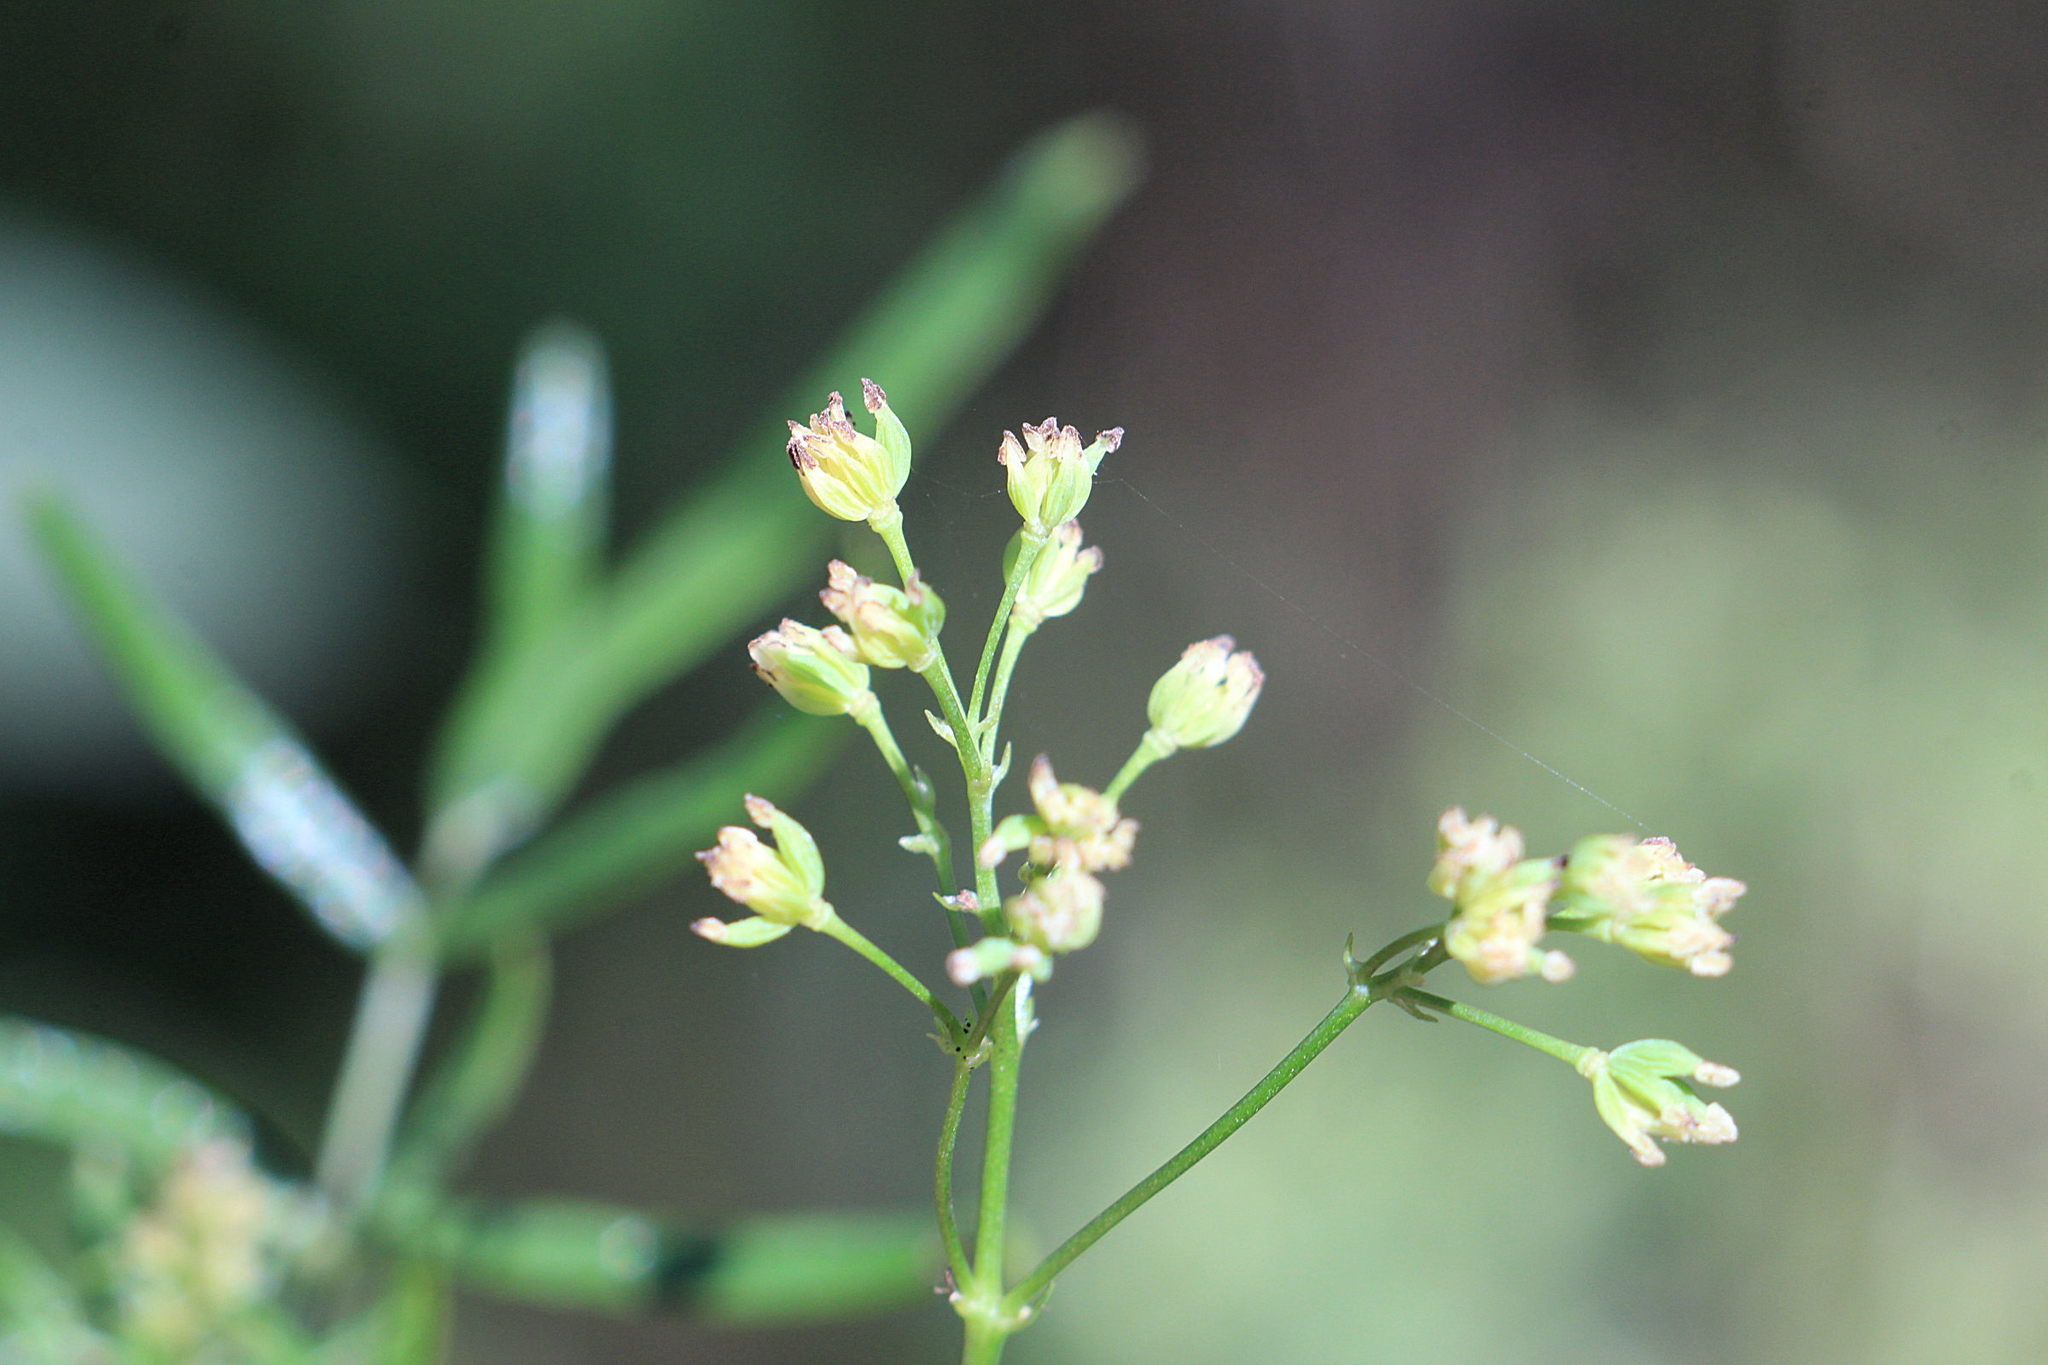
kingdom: Plantae
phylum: Tracheophyta
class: Magnoliopsida
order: Ranunculales
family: Ranunculaceae
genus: Thalictrum
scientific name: Thalictrum lucidum
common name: Shining meadow-rue
